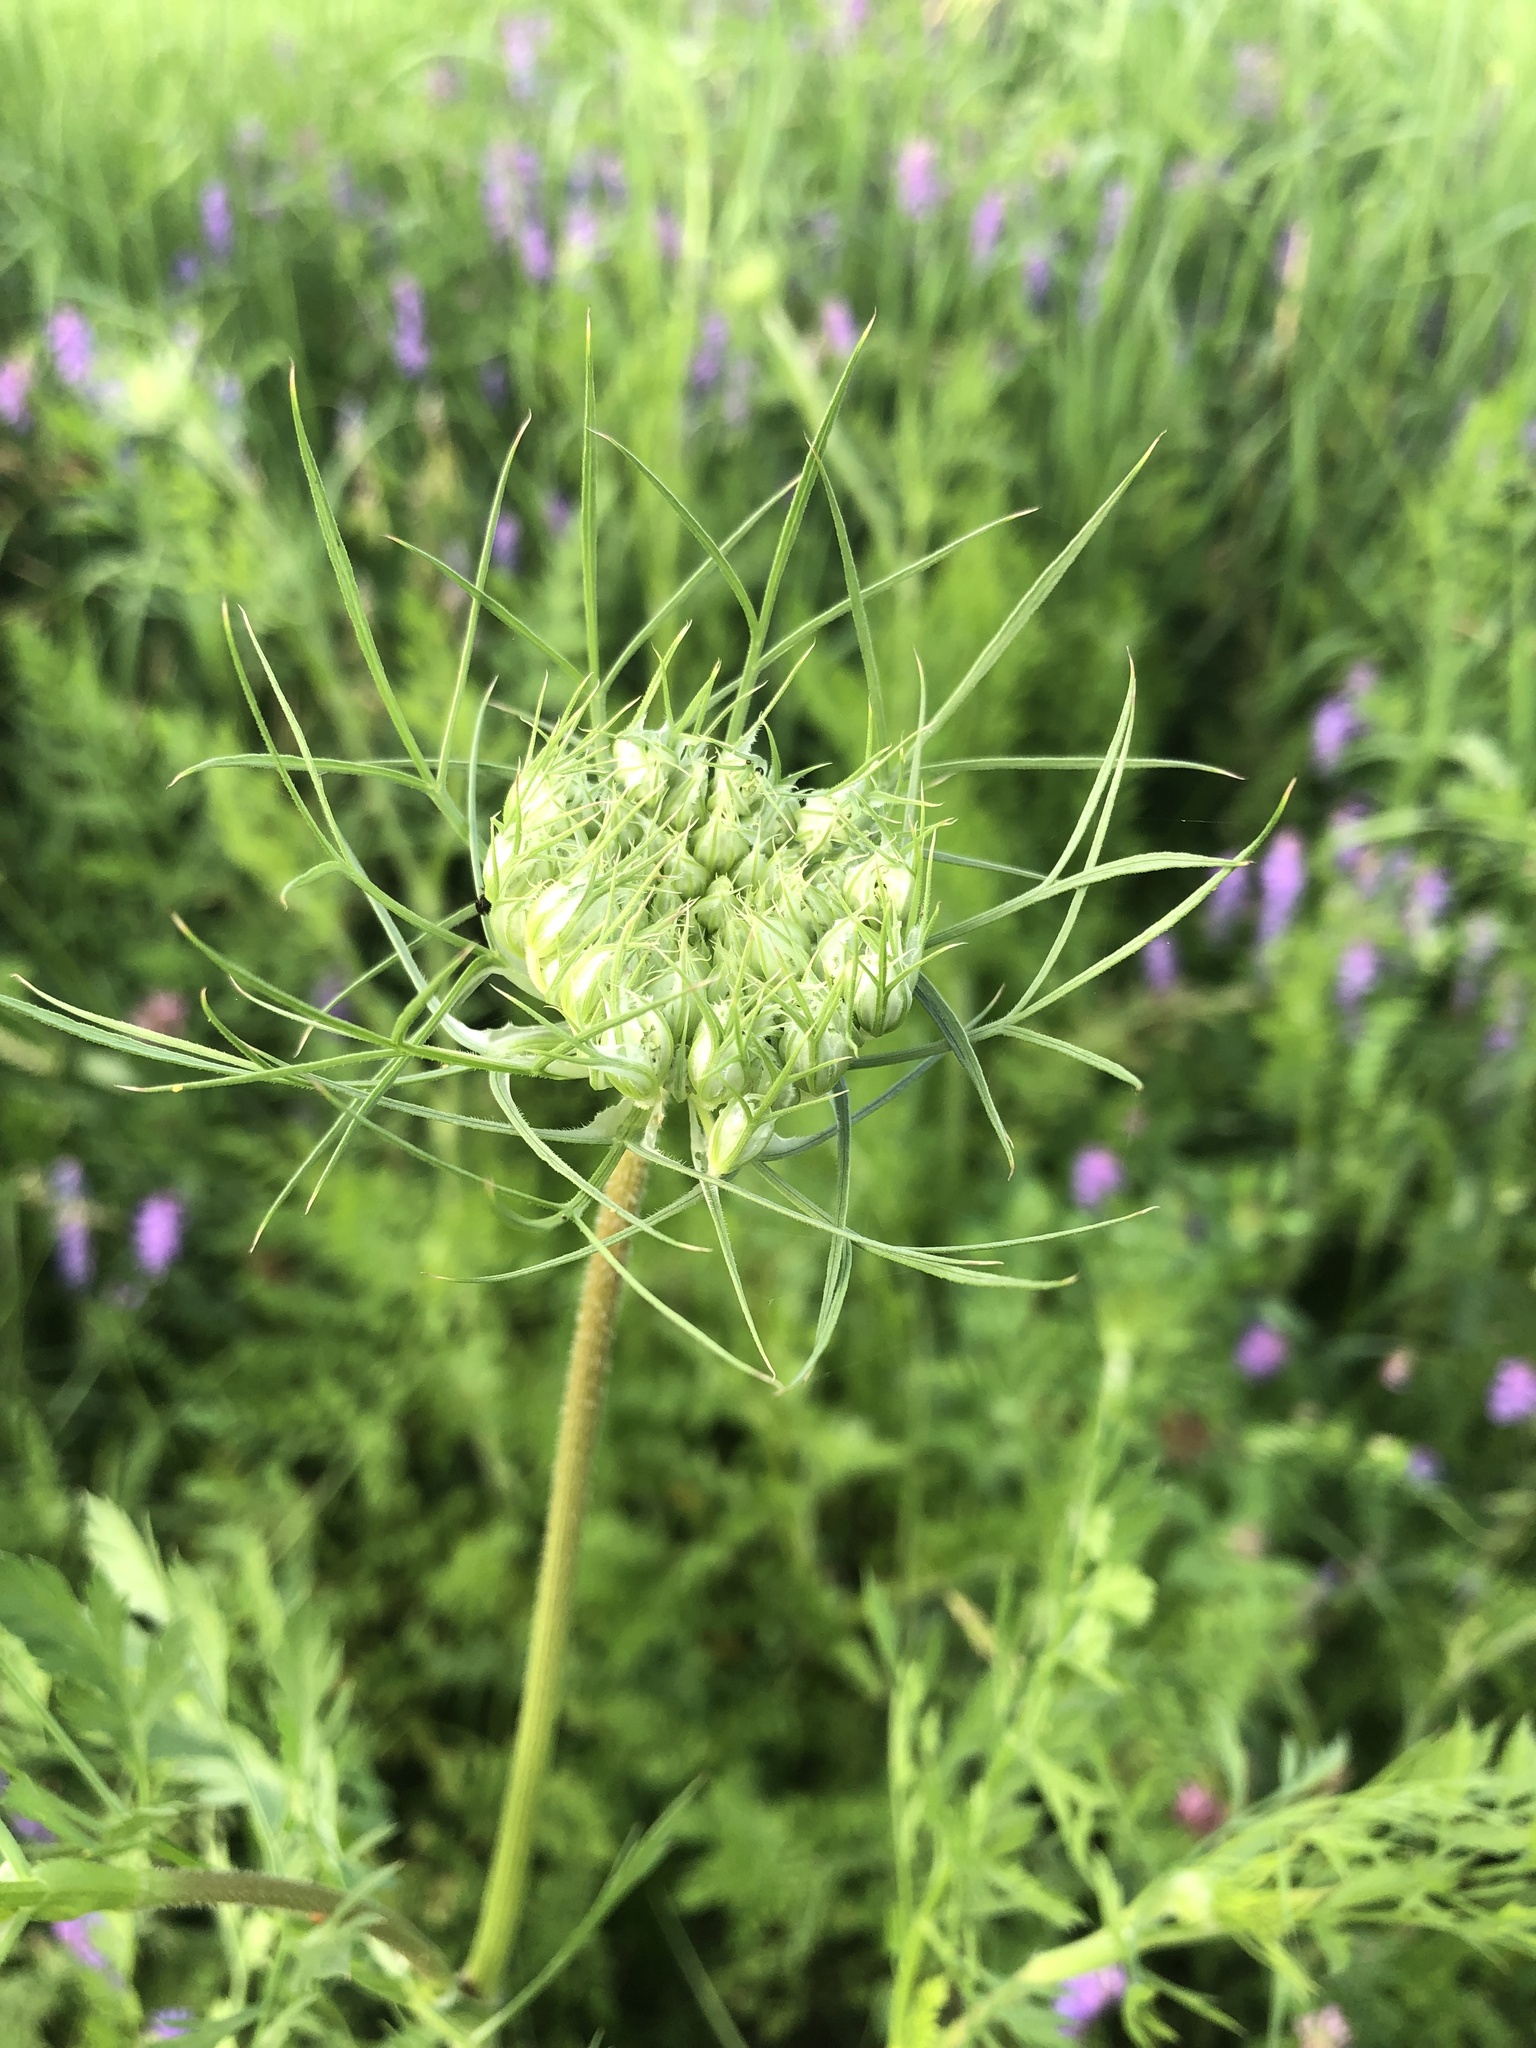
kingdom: Plantae
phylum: Tracheophyta
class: Magnoliopsida
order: Apiales
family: Apiaceae
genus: Daucus
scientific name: Daucus carota
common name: Wild carrot
